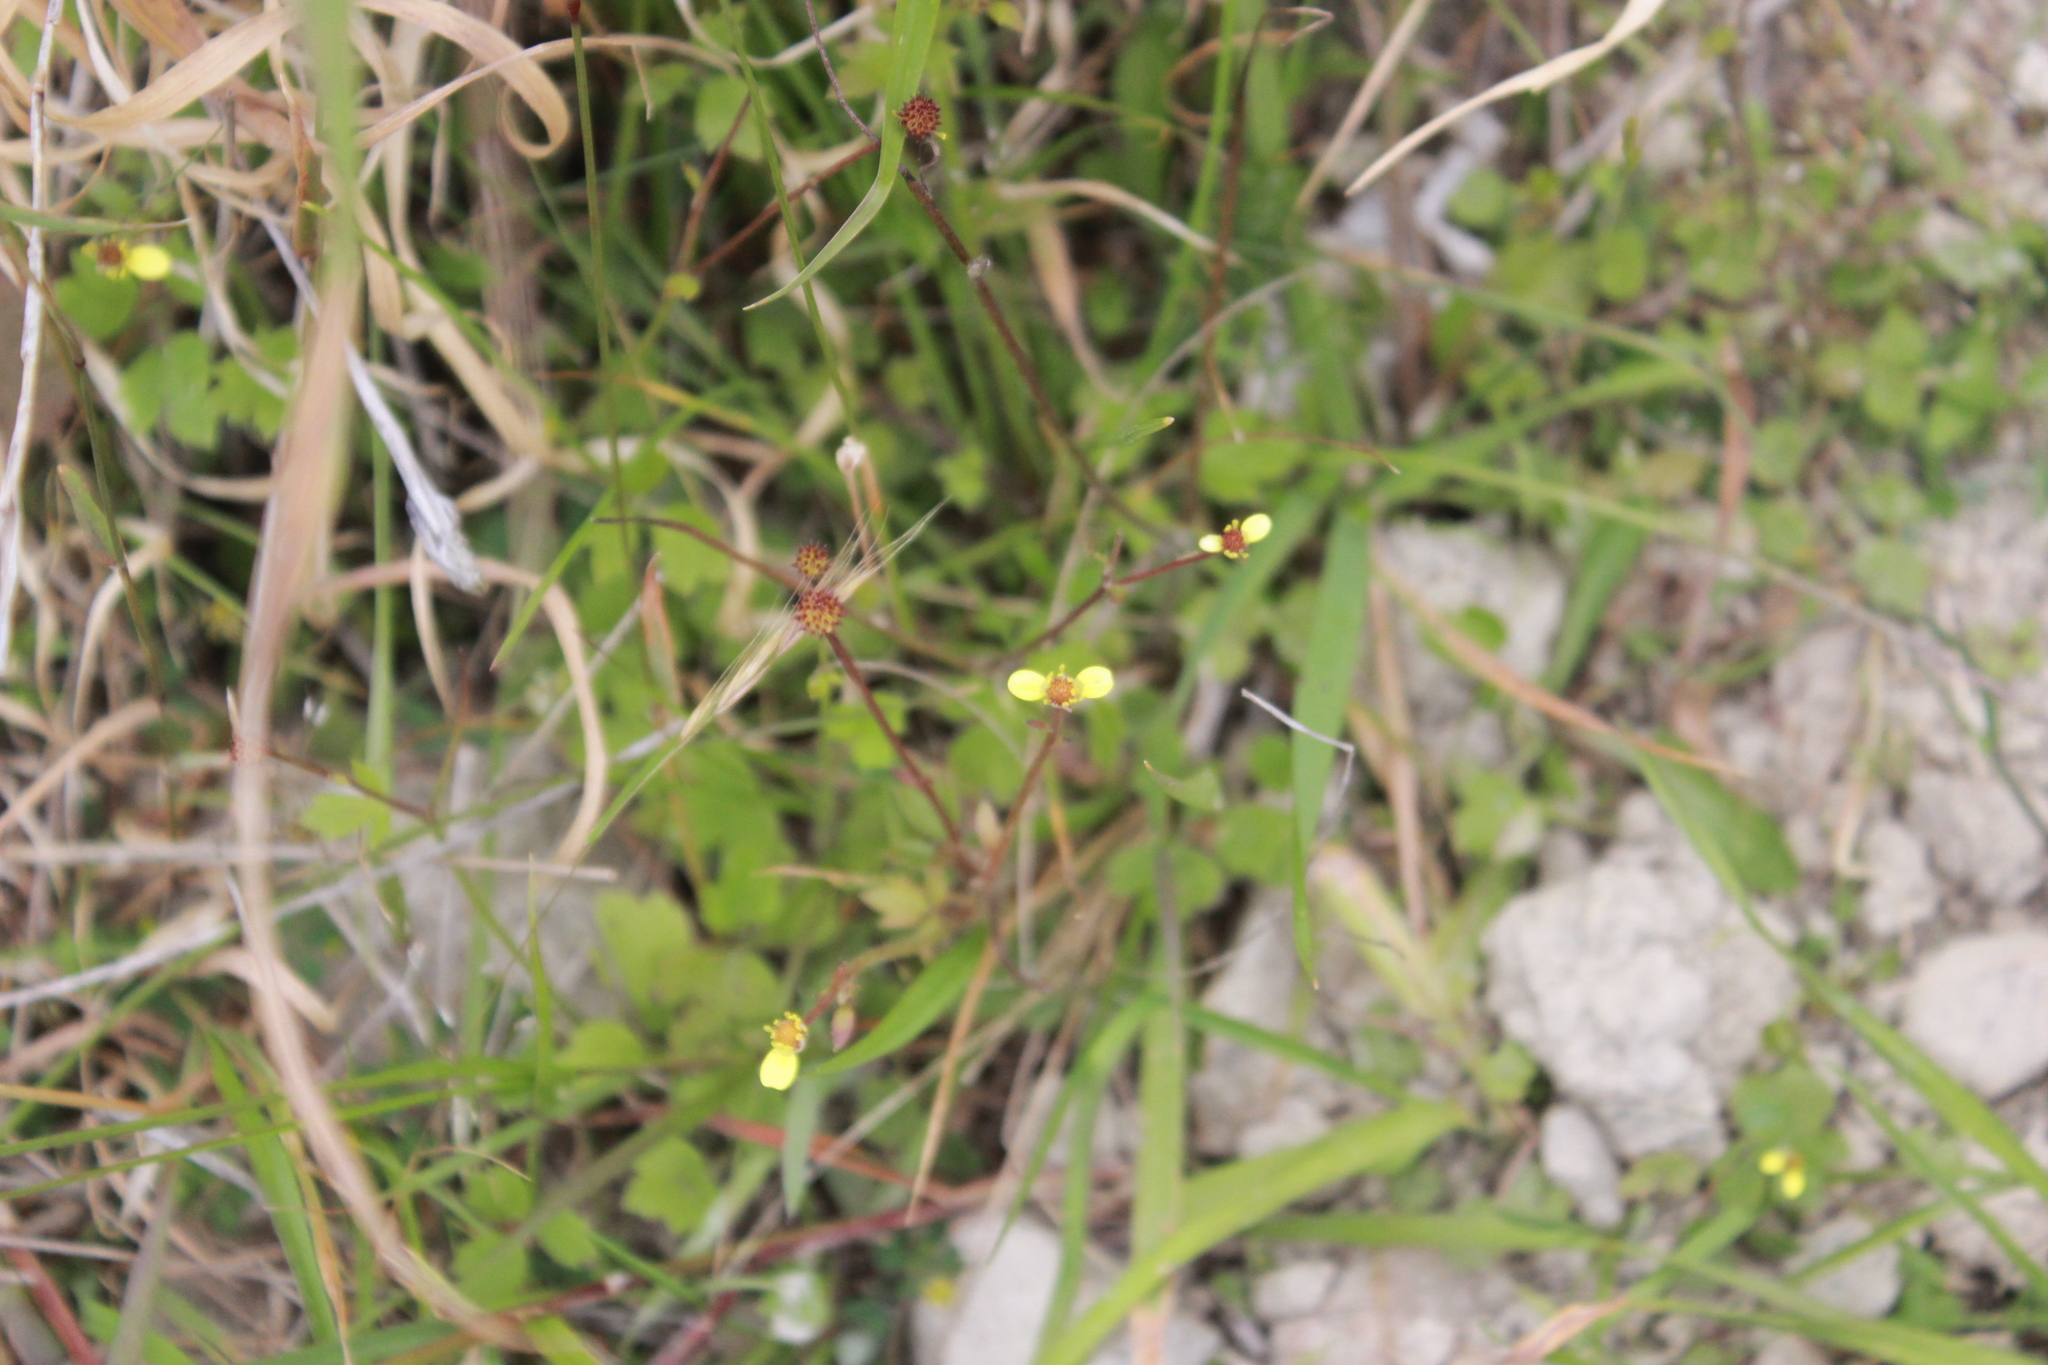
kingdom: Plantae
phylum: Tracheophyta
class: Magnoliopsida
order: Ranunculales
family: Ranunculaceae
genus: Ranunculus
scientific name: Ranunculus reflexus
